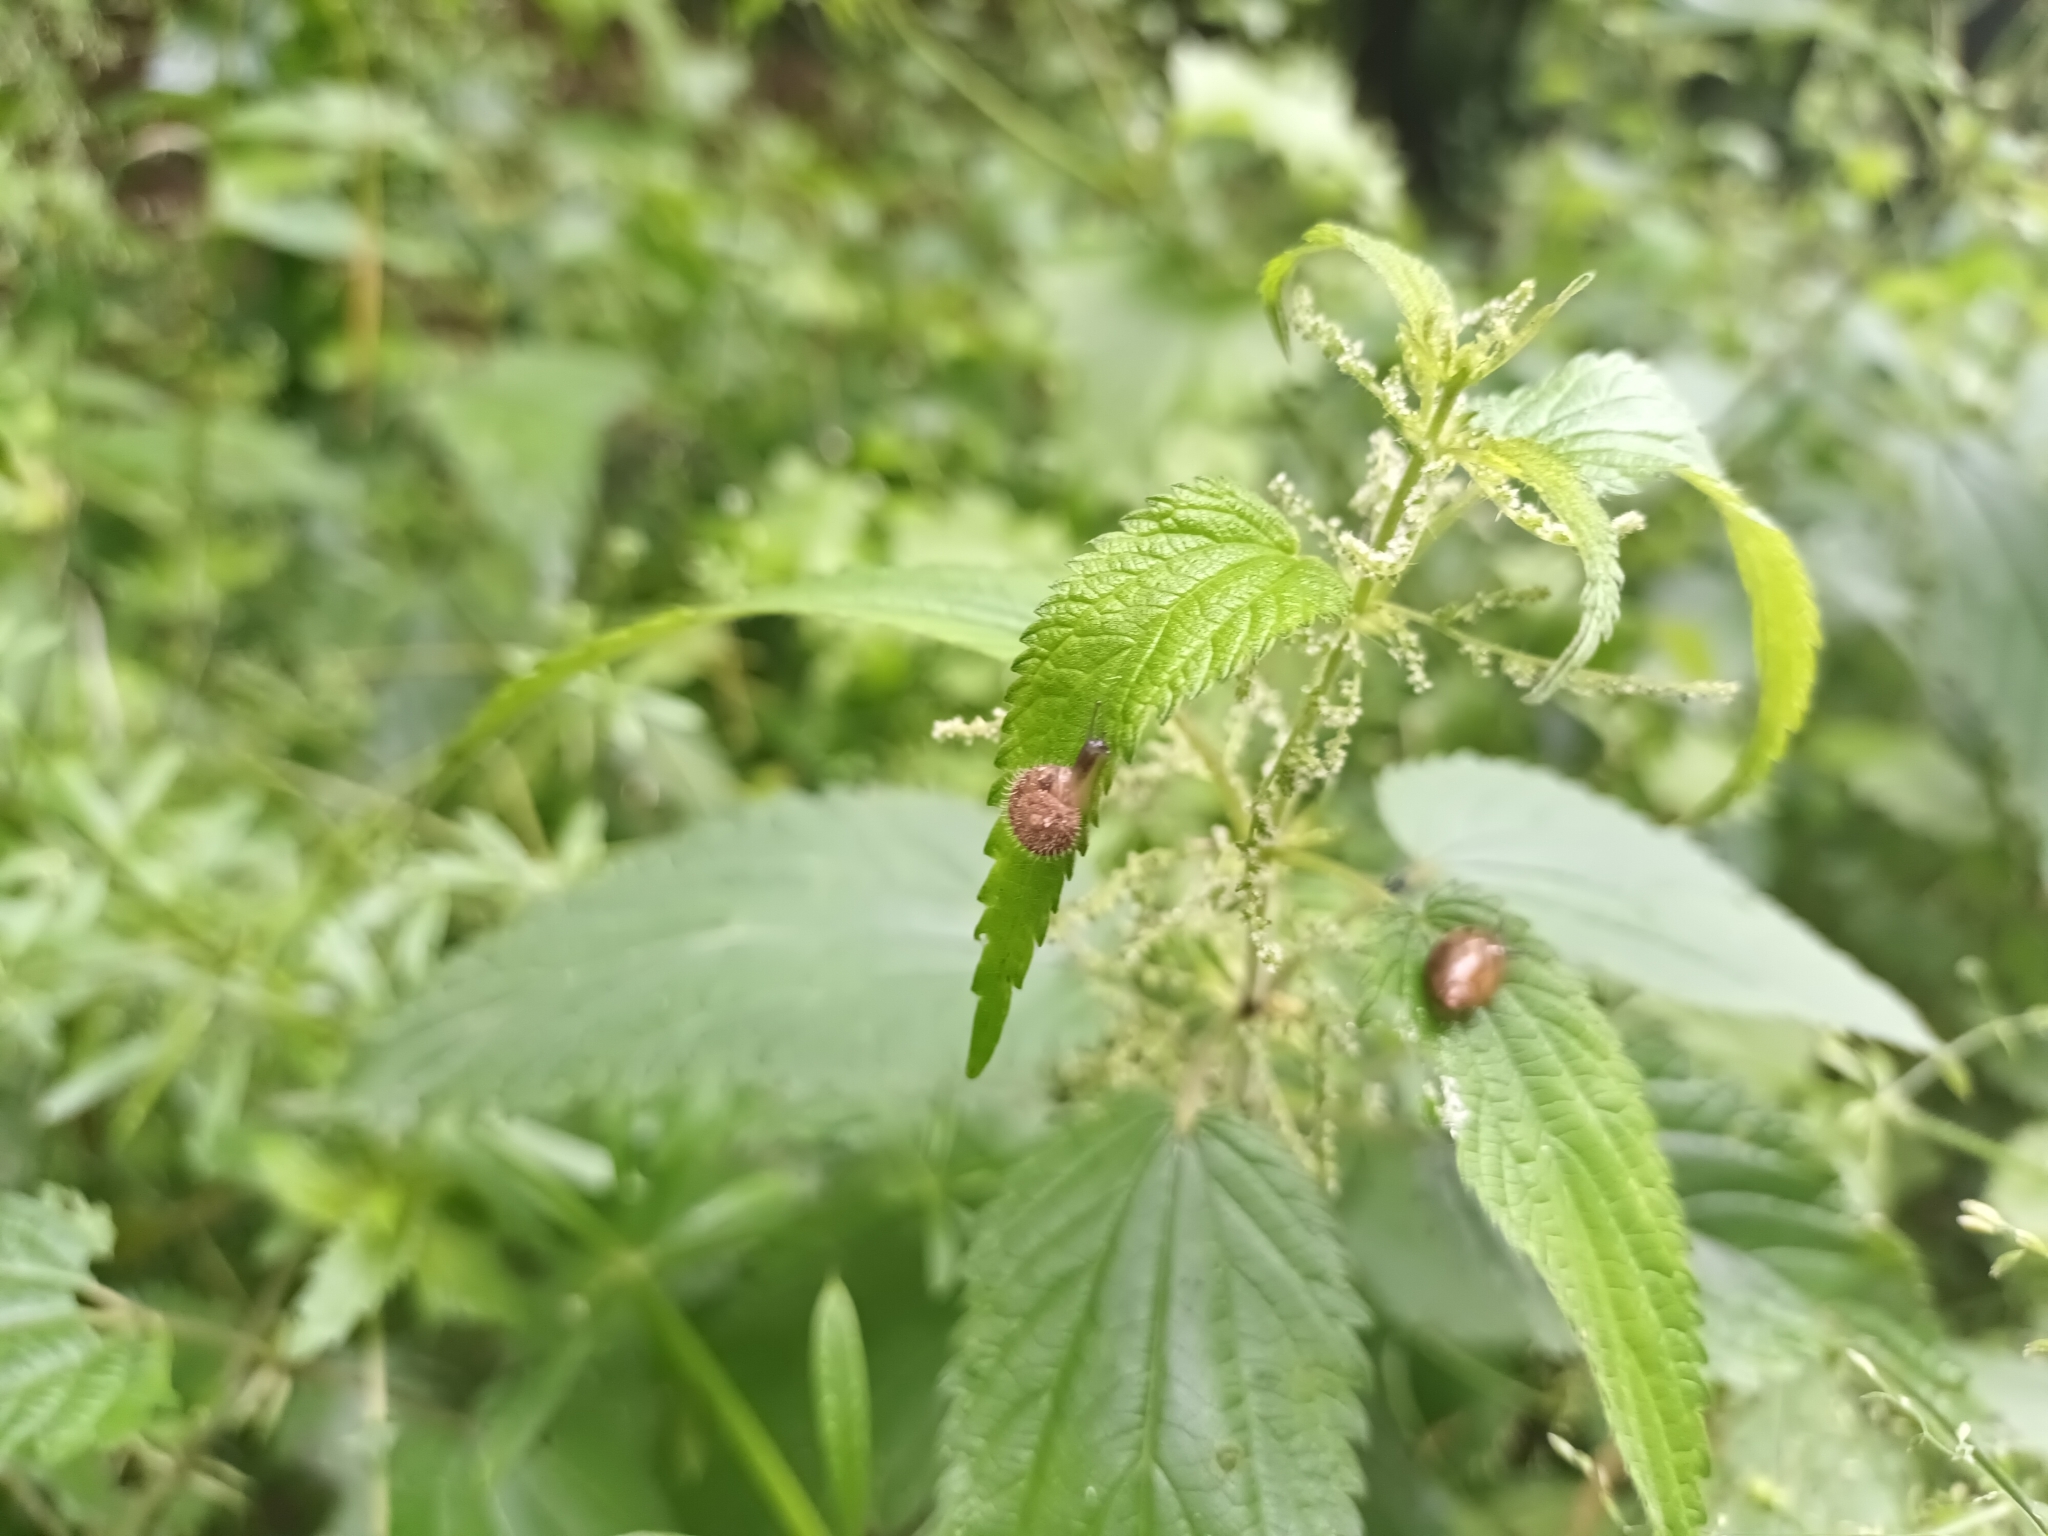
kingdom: Animalia
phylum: Mollusca
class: Gastropoda
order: Stylommatophora
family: Hygromiidae
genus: Trochulus
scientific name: Trochulus hispidus
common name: Hairy snail
